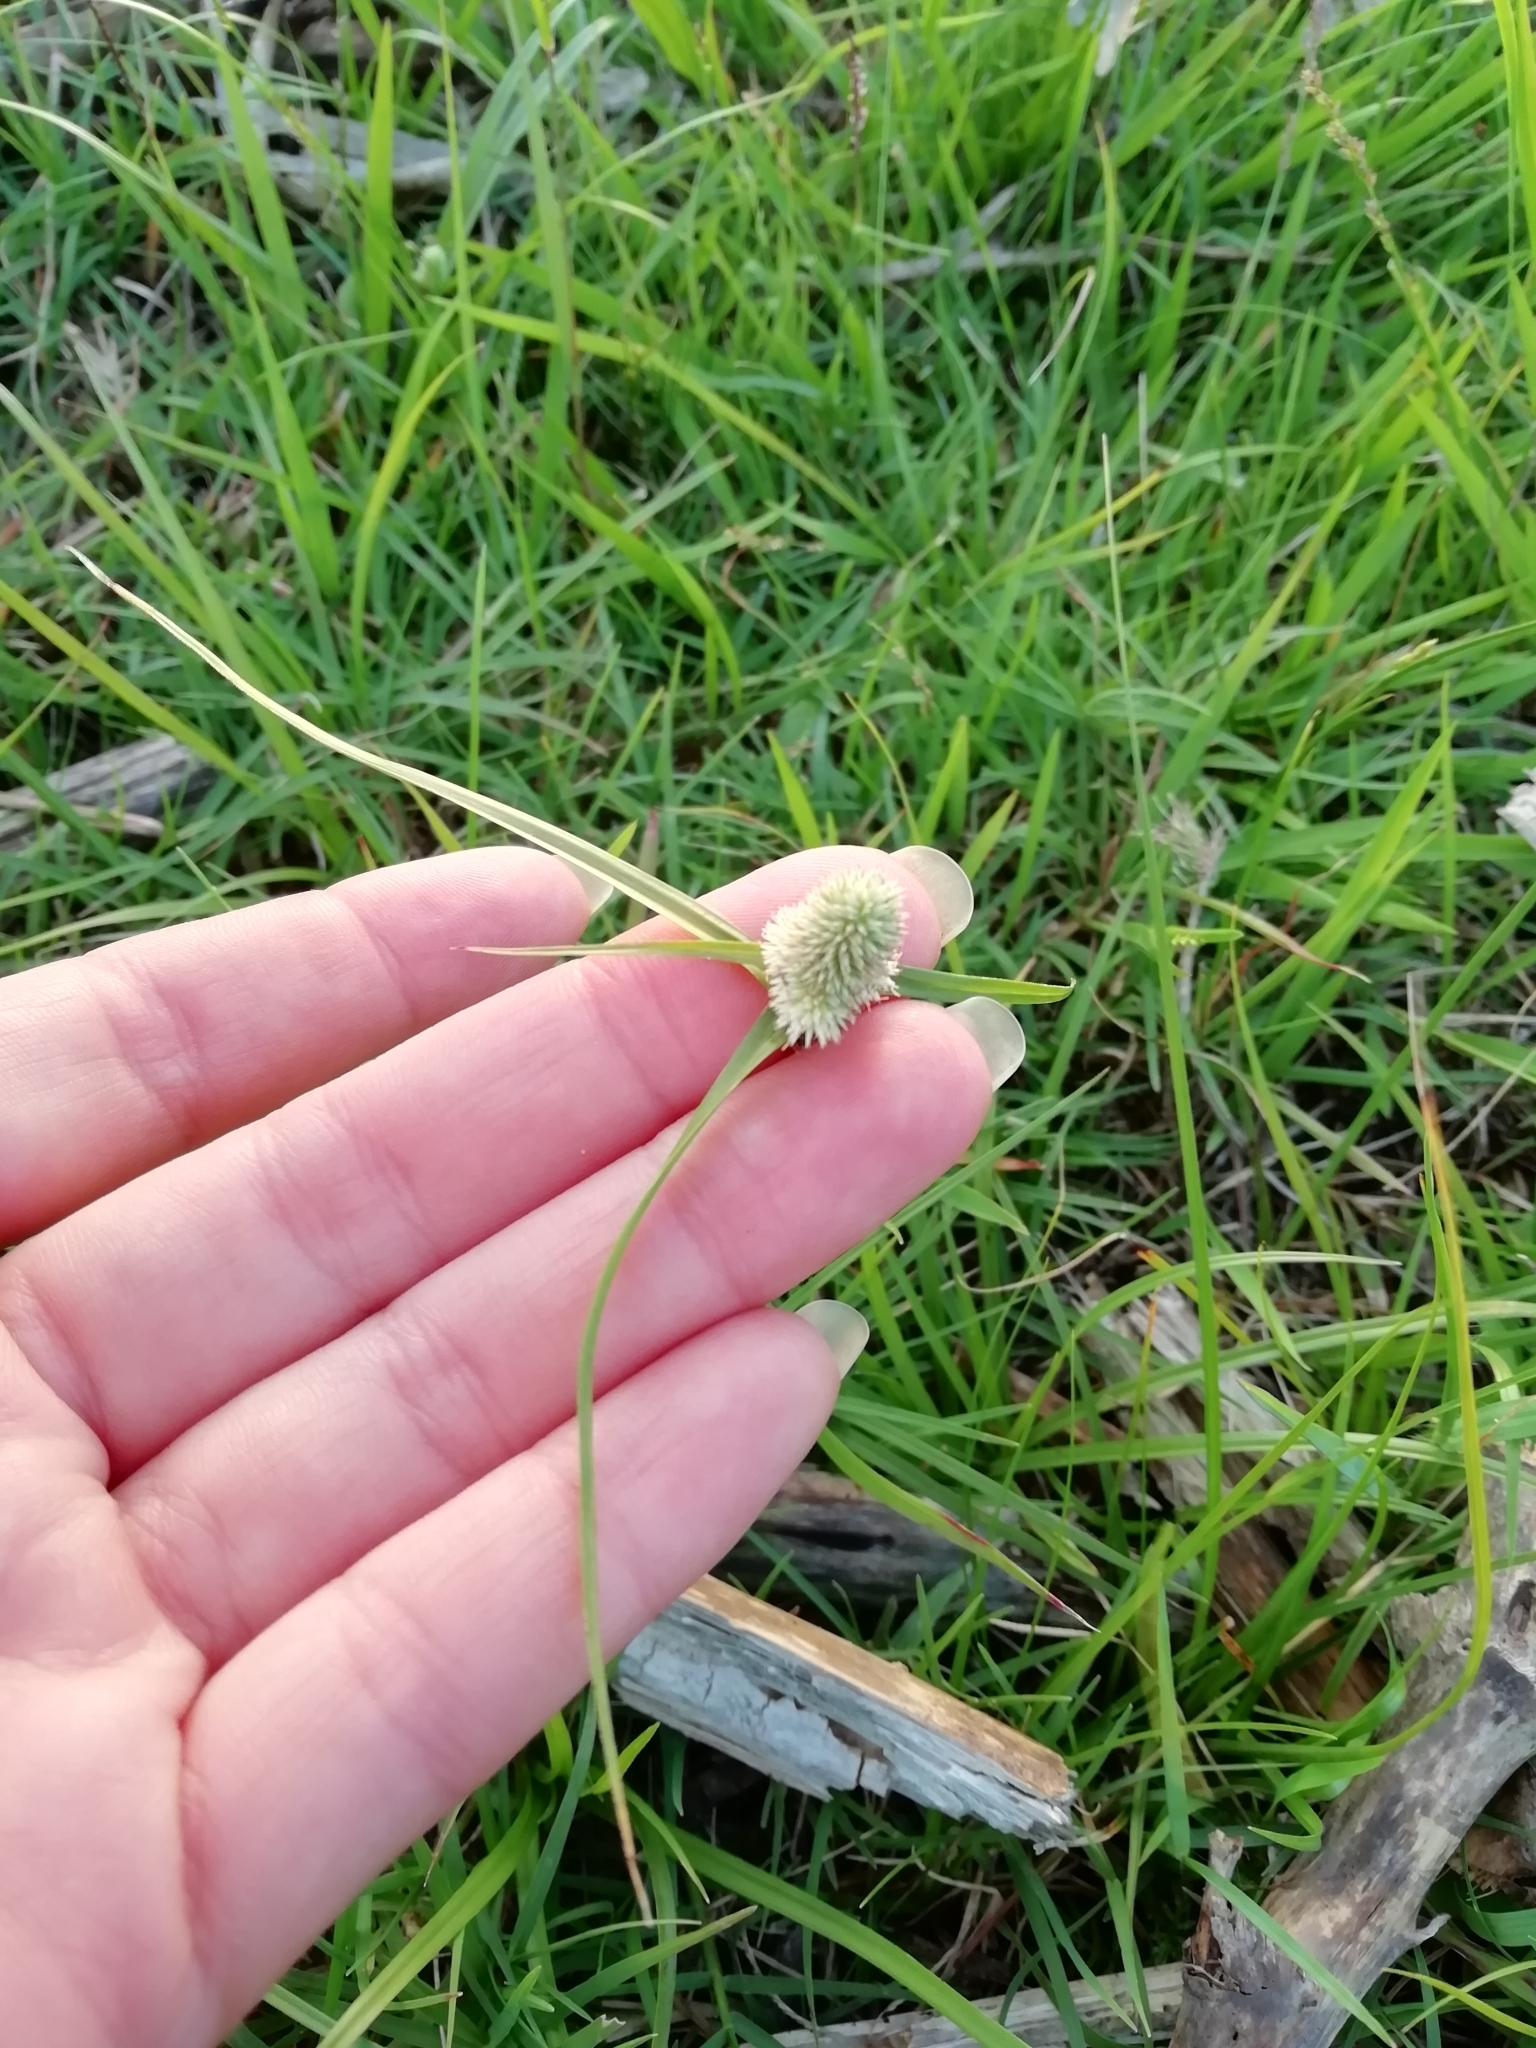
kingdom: Plantae
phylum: Tracheophyta
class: Liliopsida
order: Poales
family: Cyperaceae
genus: Cyperus
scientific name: Cyperus sesquiflorus
